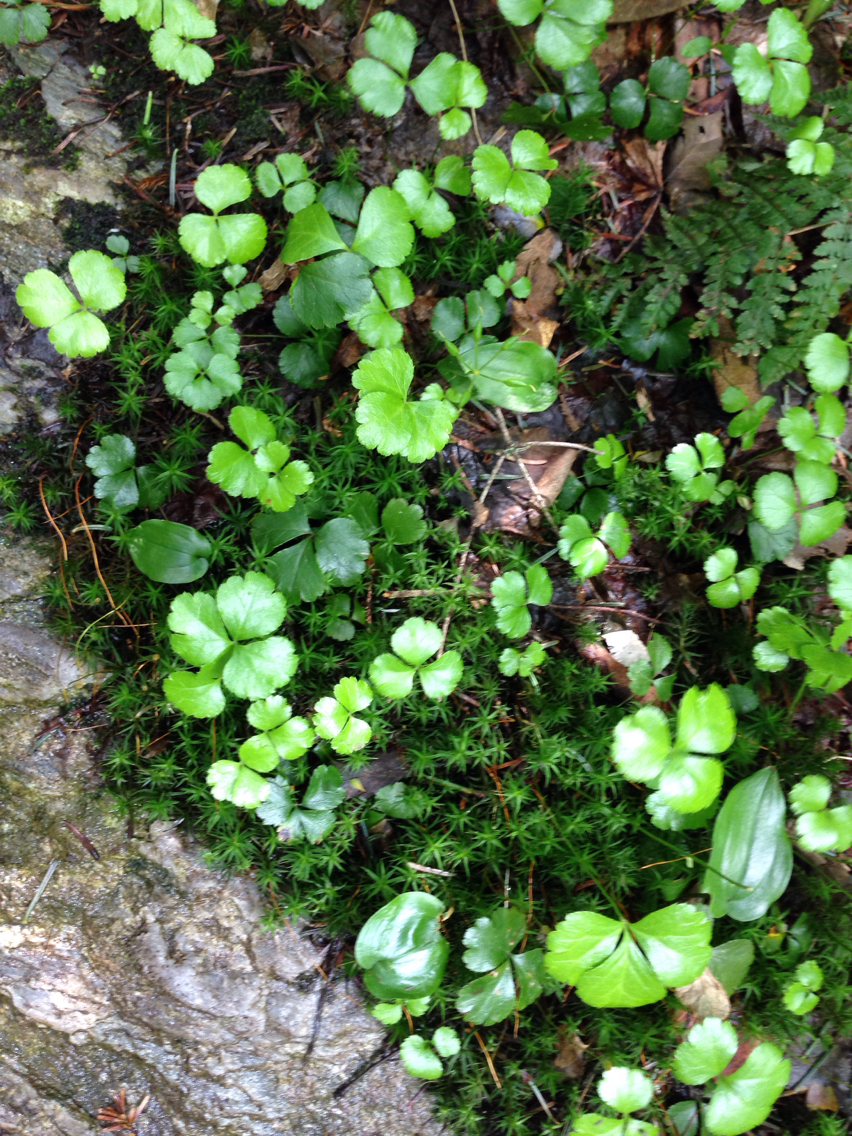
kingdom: Plantae
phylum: Tracheophyta
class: Magnoliopsida
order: Ranunculales
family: Ranunculaceae
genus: Coptis
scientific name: Coptis trifolia
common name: Canker-root
